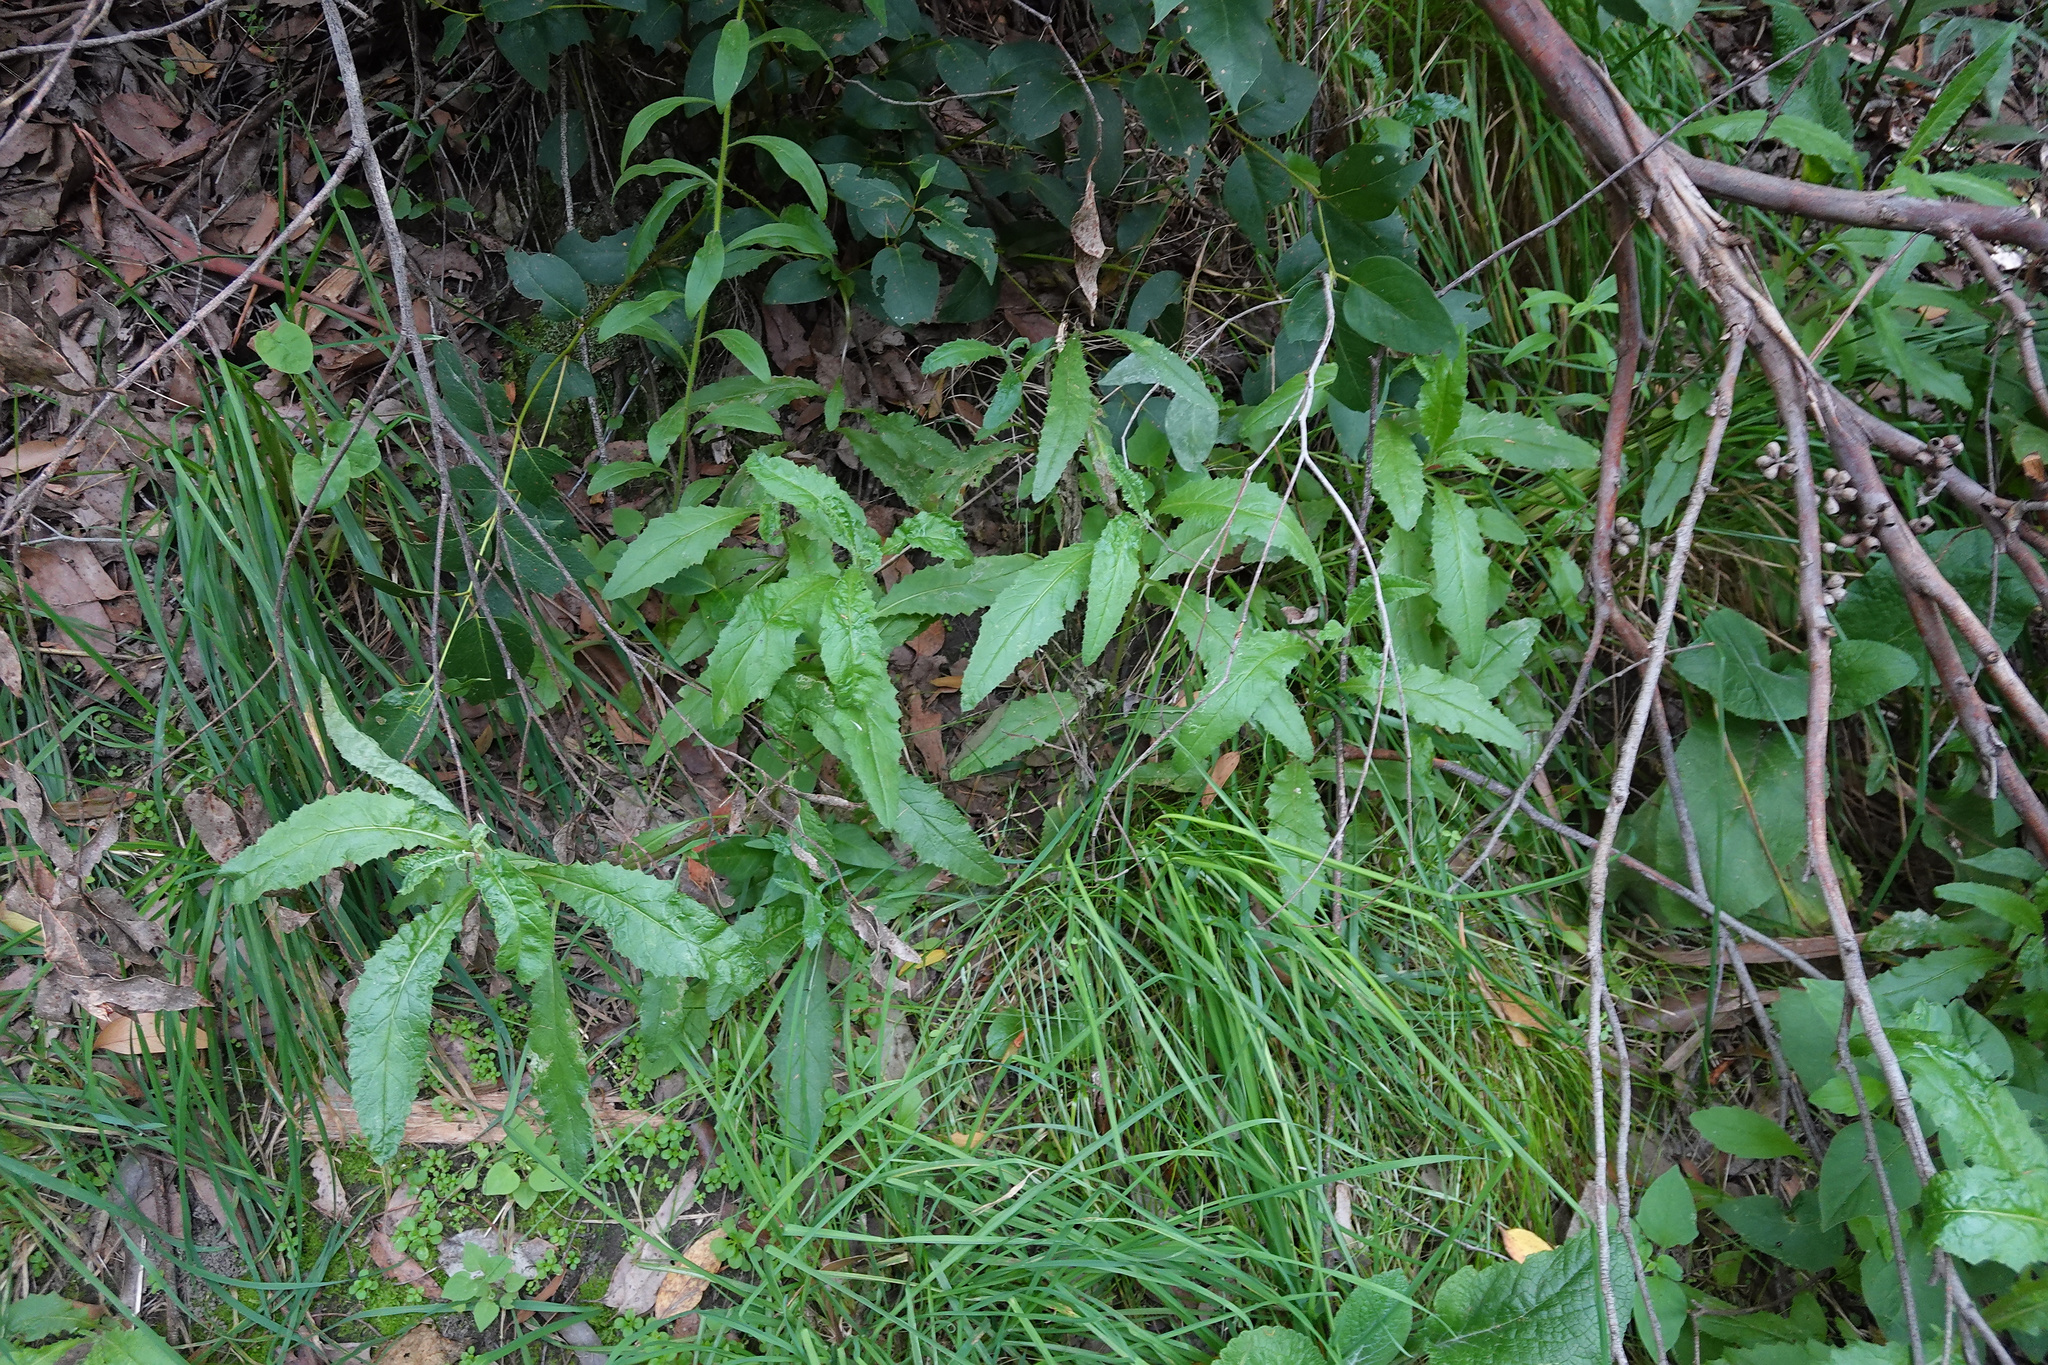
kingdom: Plantae
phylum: Tracheophyta
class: Magnoliopsida
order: Asterales
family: Asteraceae
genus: Senecio
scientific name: Senecio minimus
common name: Toothed fireweed
